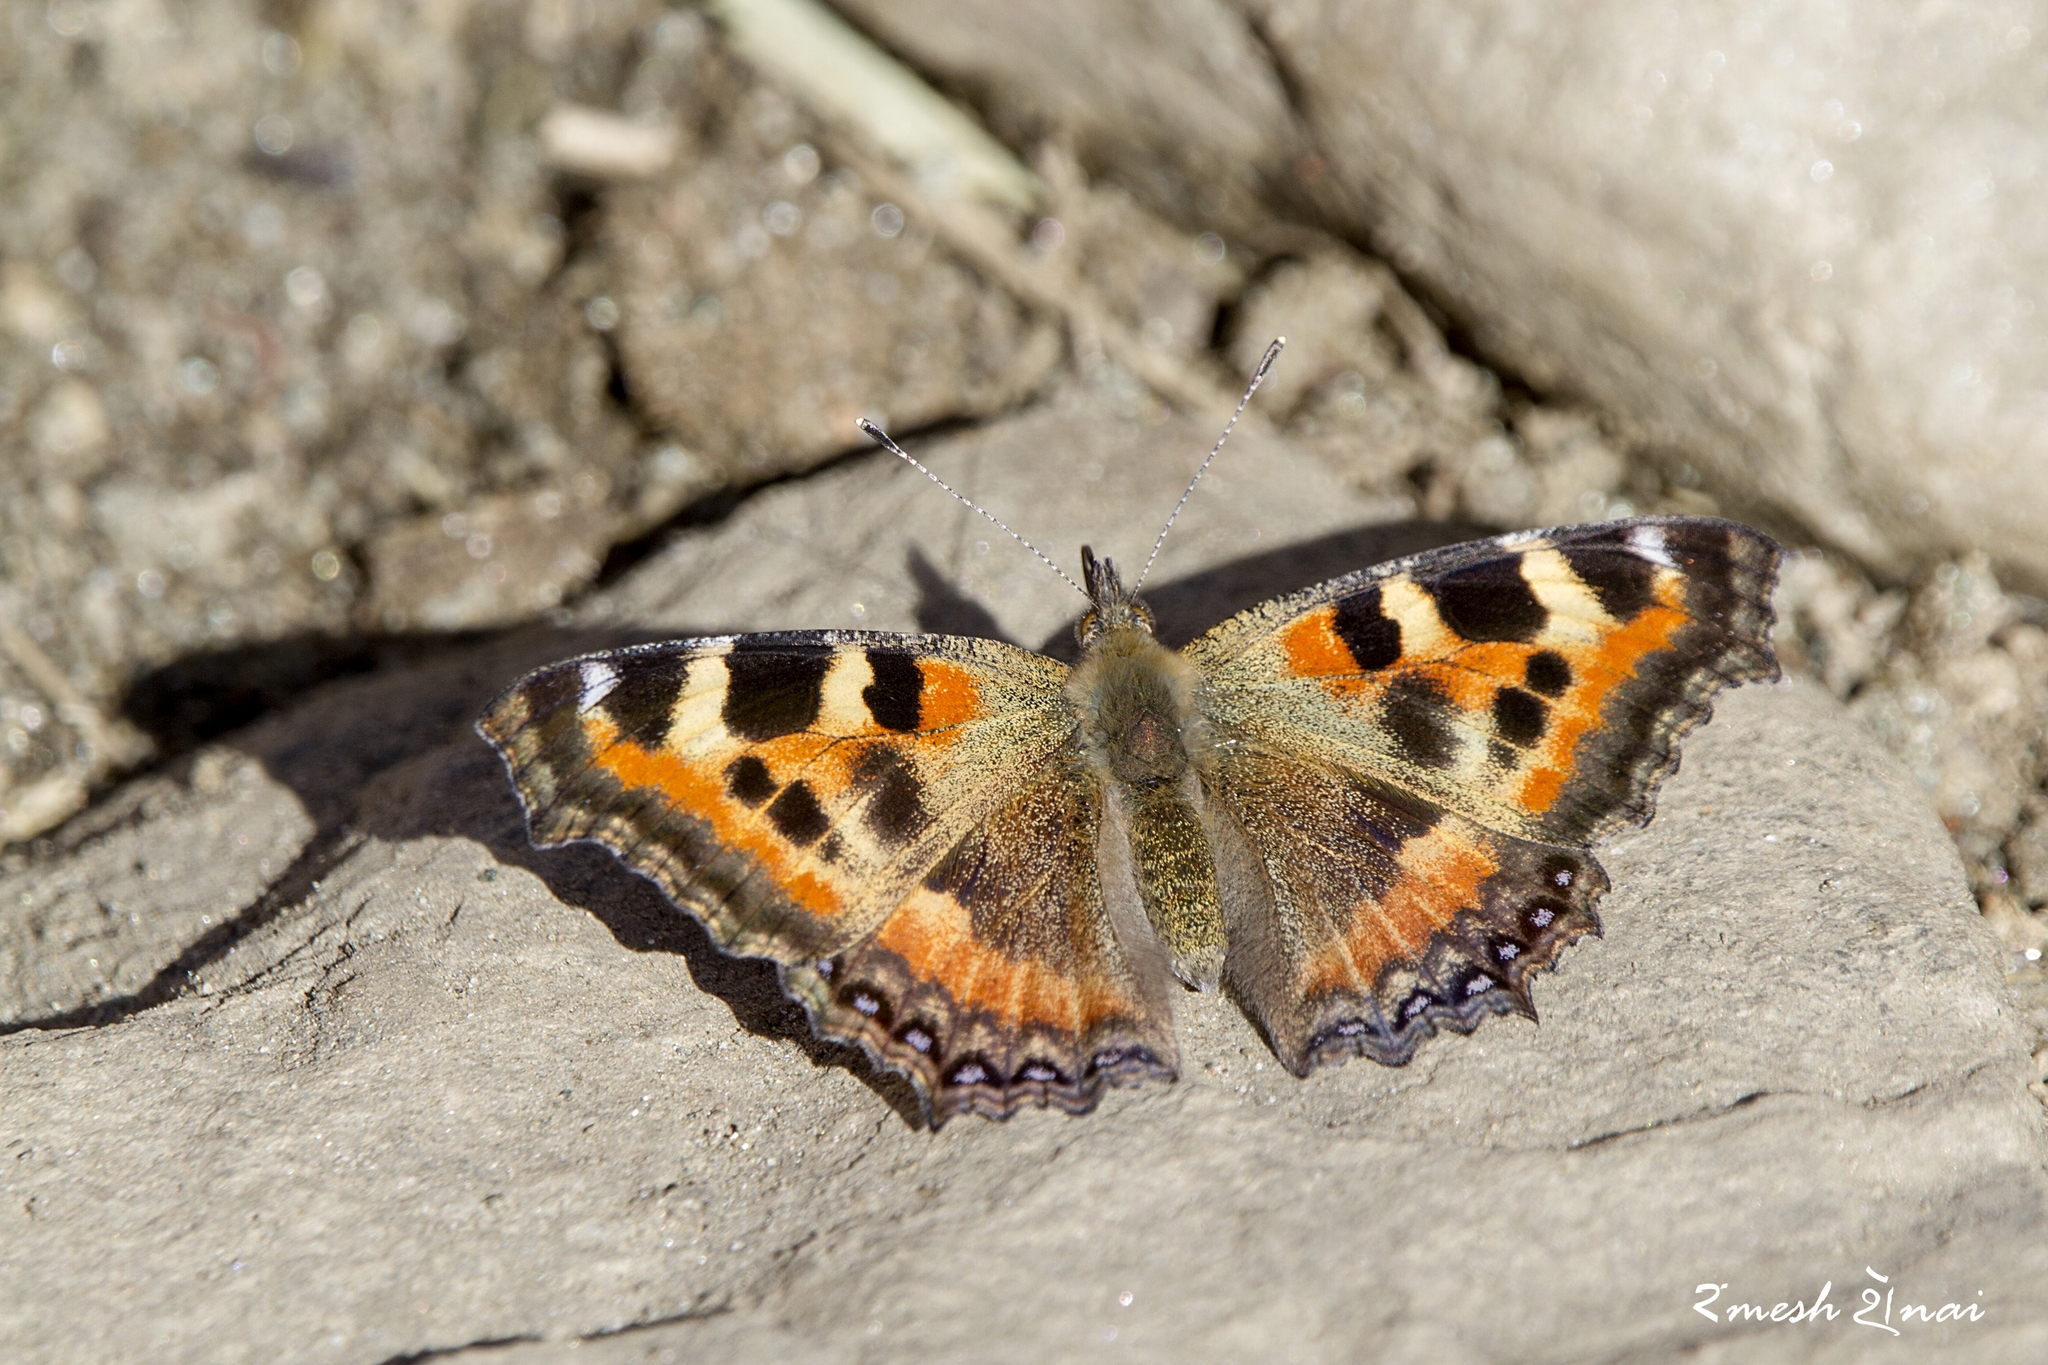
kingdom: Animalia
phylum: Arthropoda
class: Insecta
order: Lepidoptera
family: Nymphalidae
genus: Aglais
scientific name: Aglais caschmirensis
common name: Indian tortoiseshell
